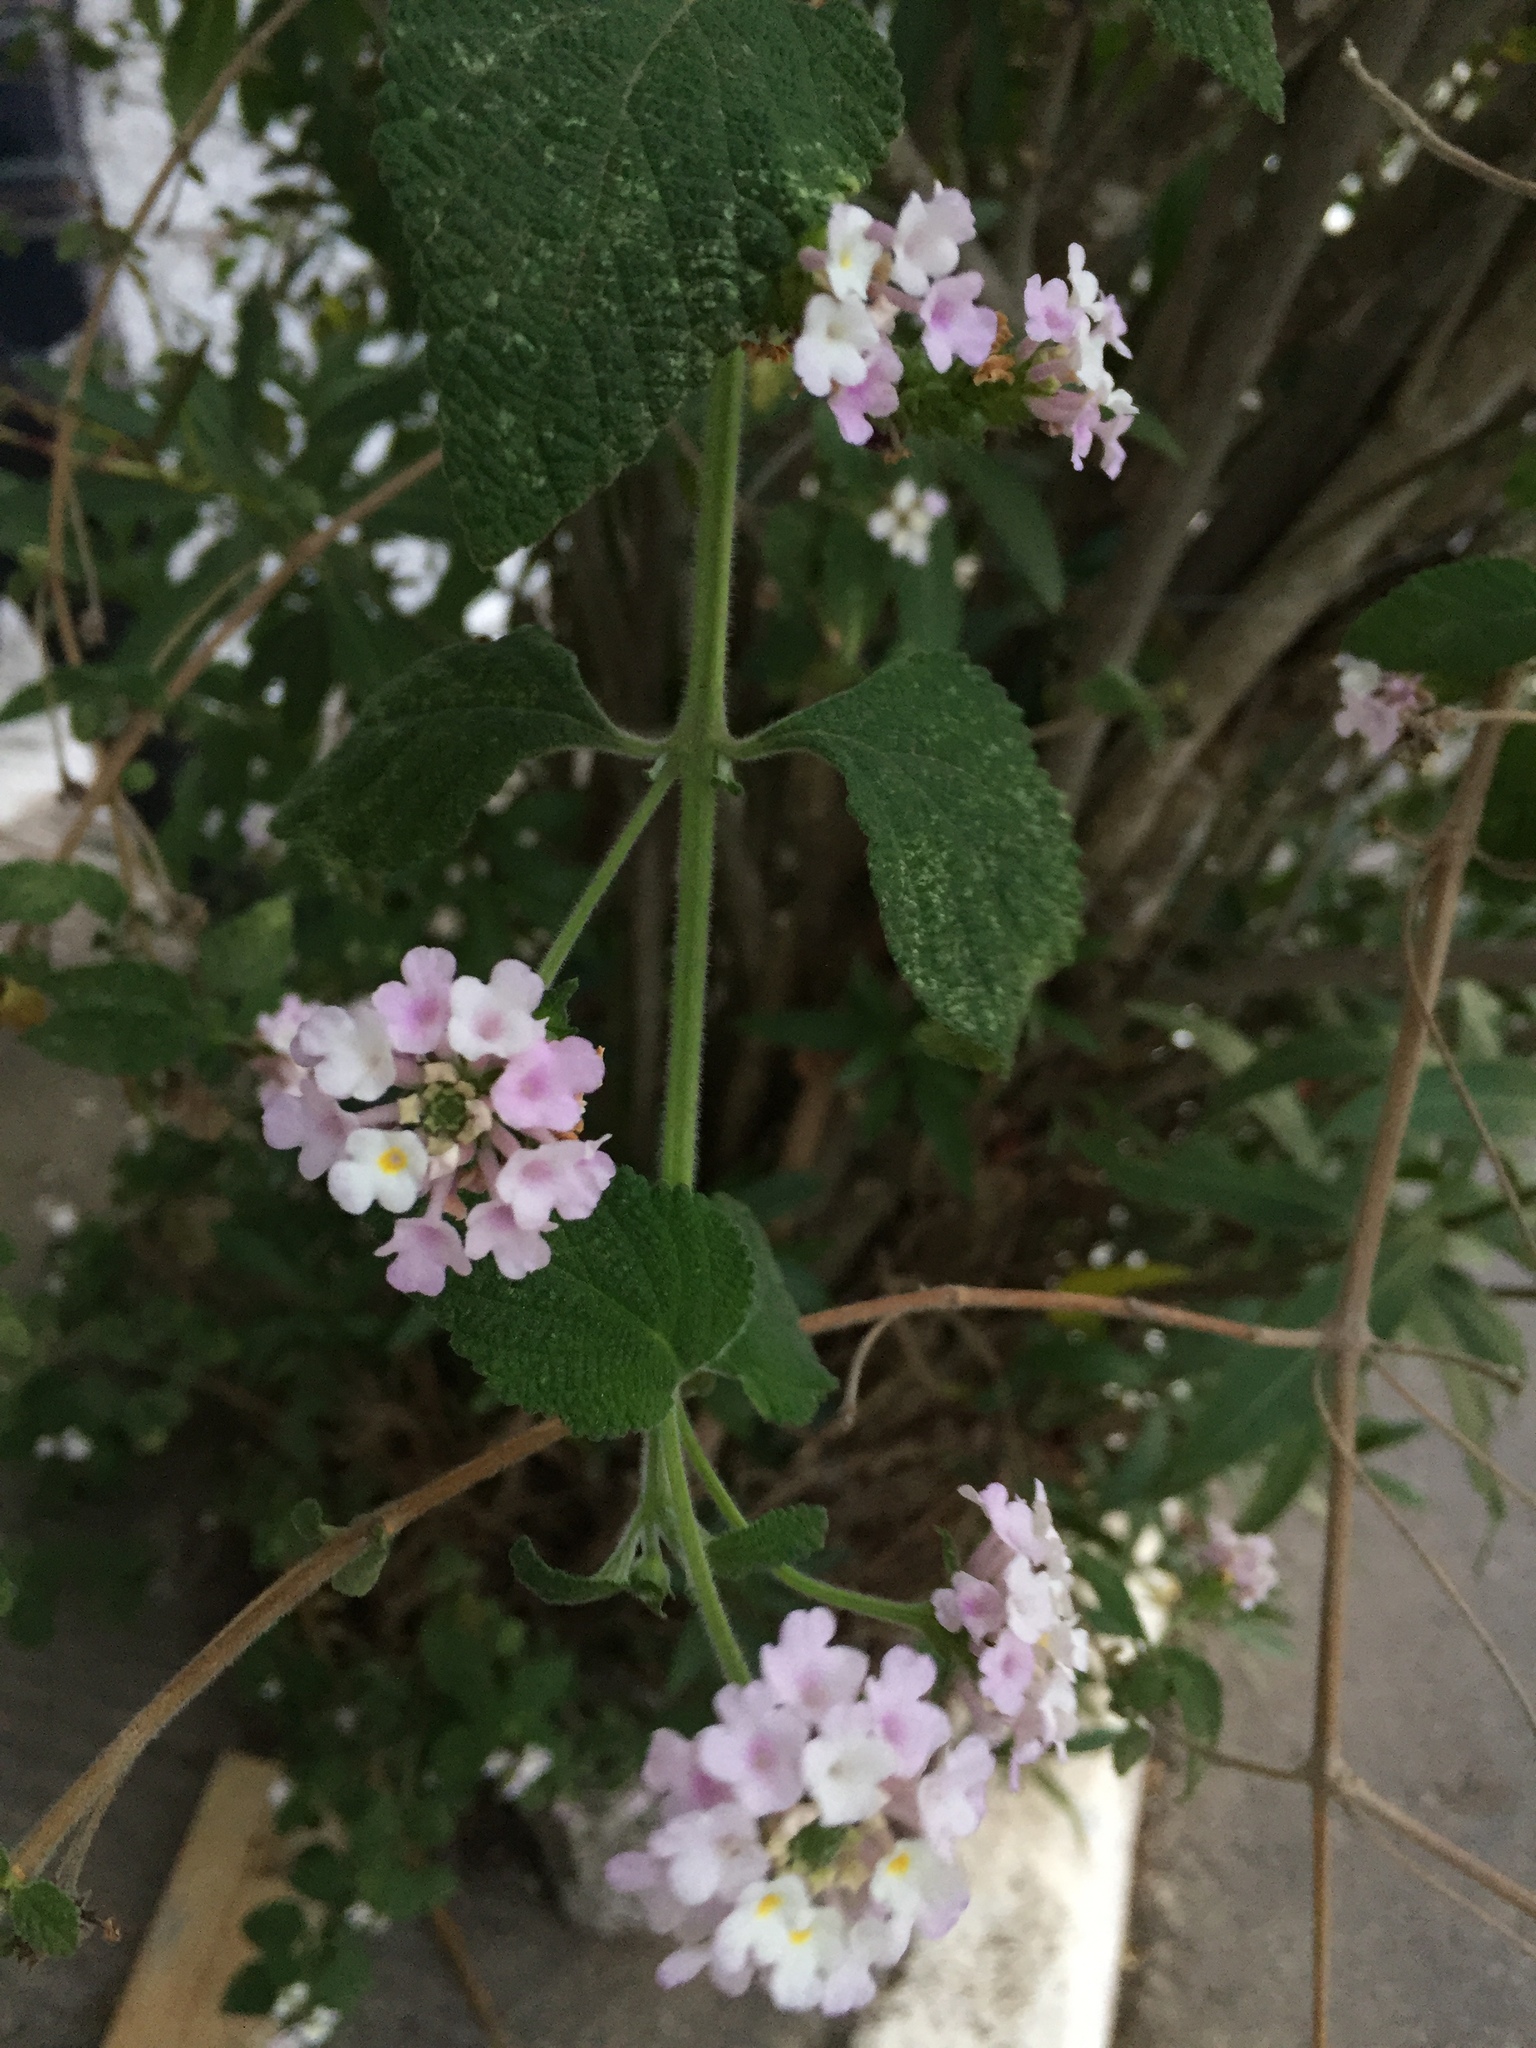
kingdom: Plantae
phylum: Tracheophyta
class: Magnoliopsida
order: Lamiales
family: Verbenaceae
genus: Lantana
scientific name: Lantana rugulosa
